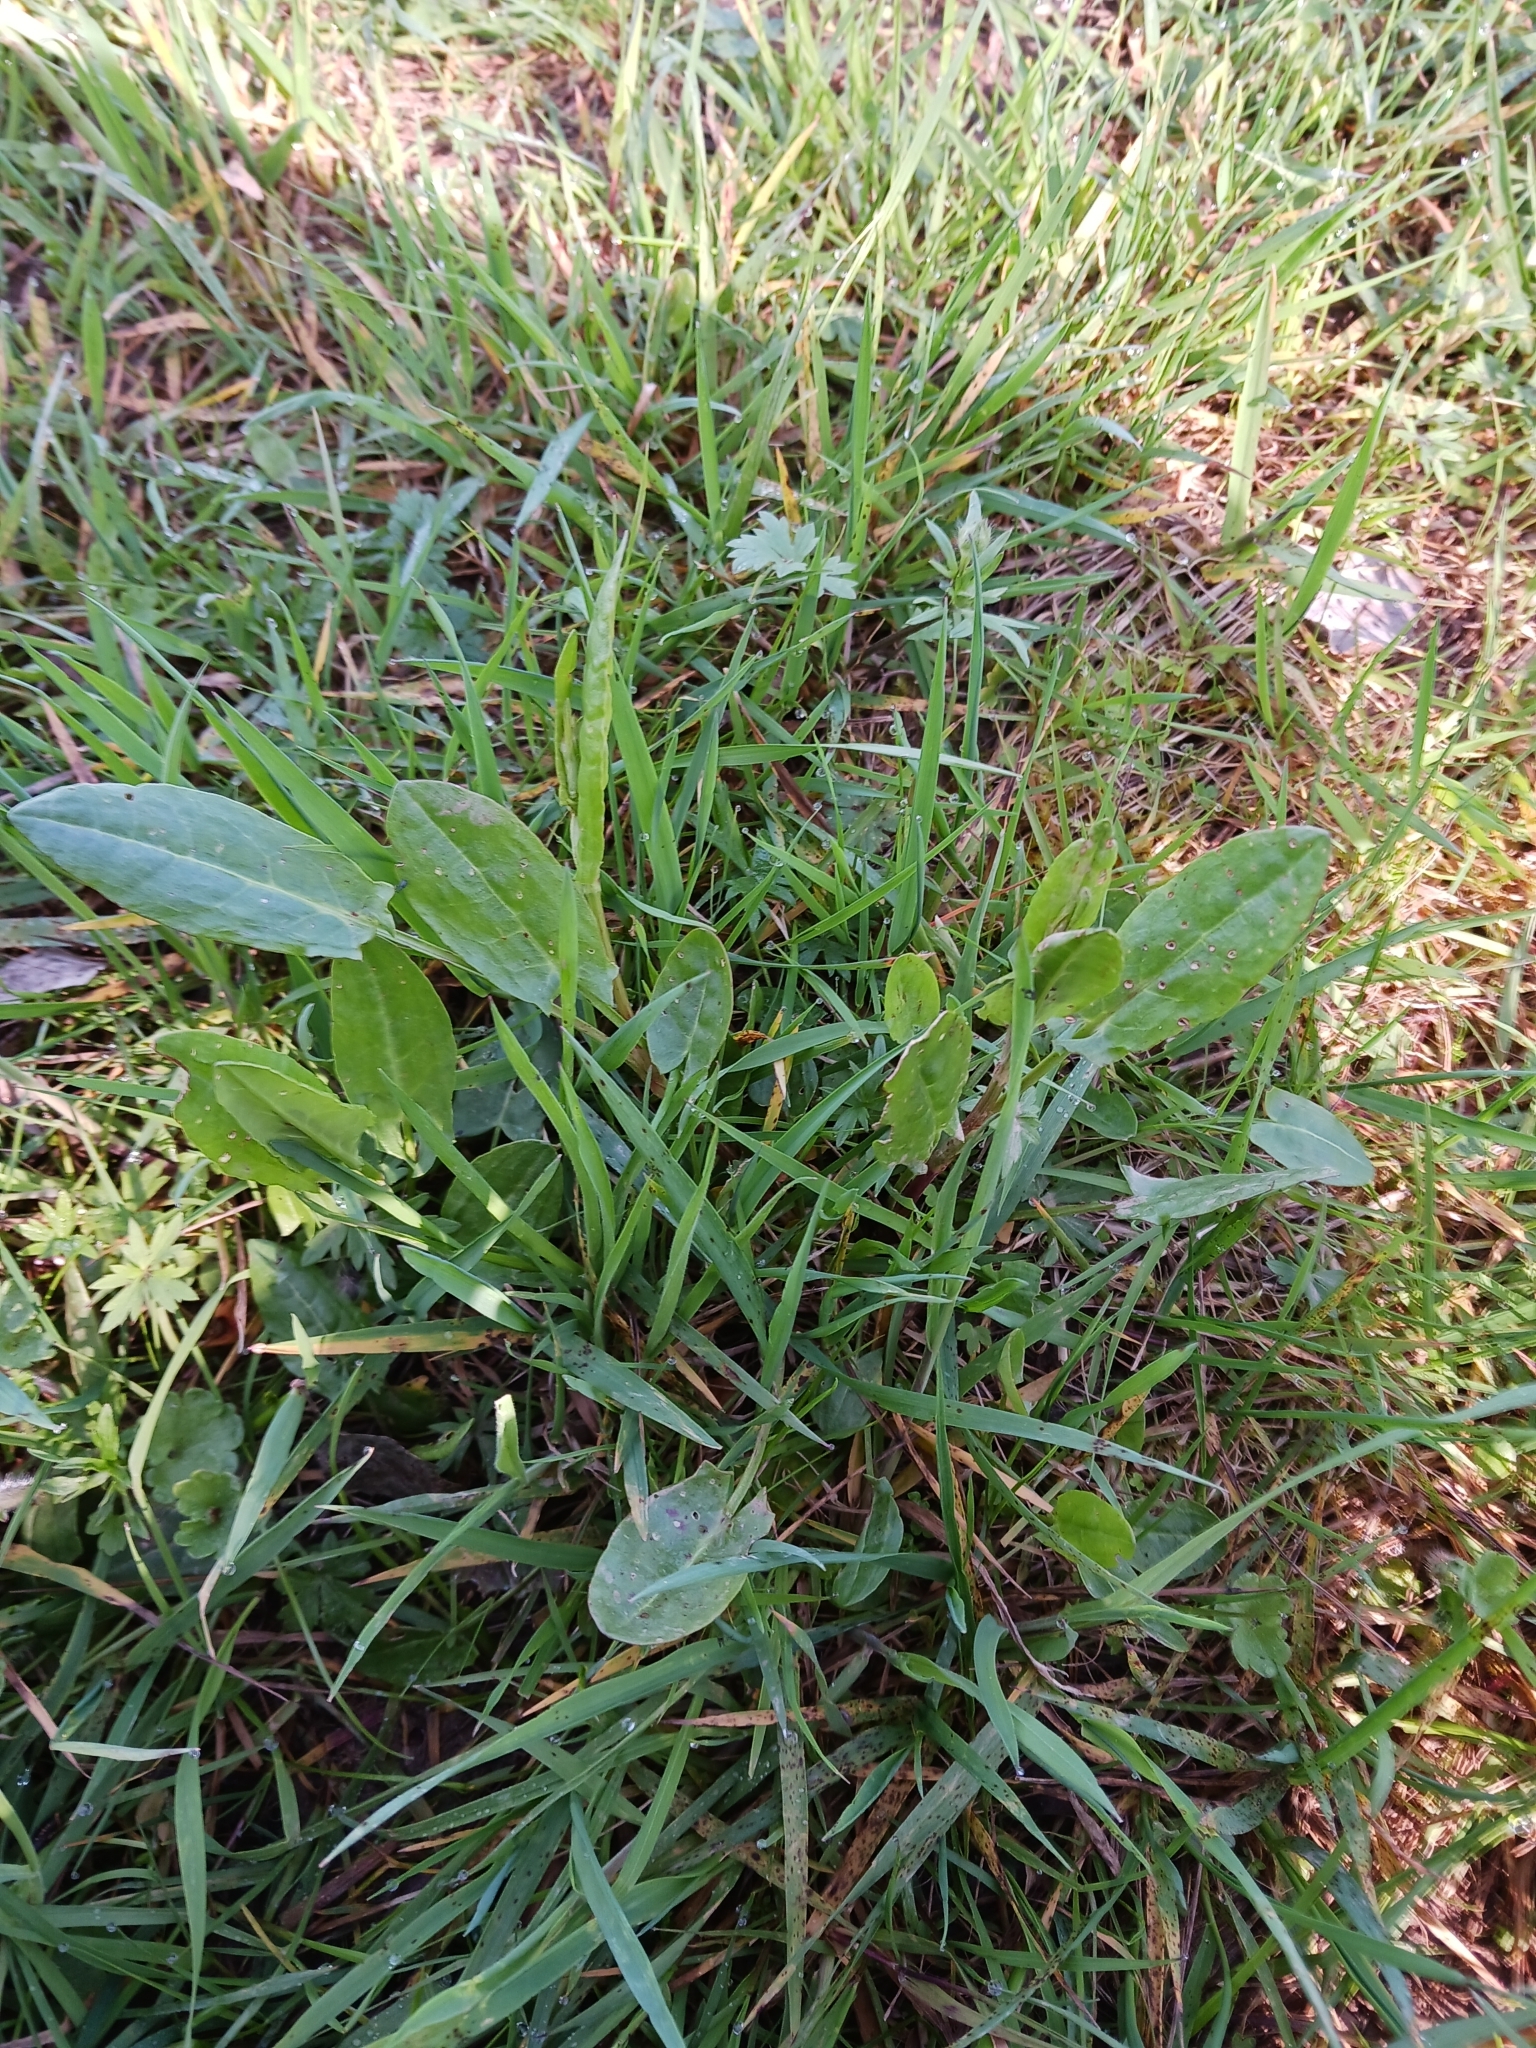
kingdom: Plantae
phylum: Tracheophyta
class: Magnoliopsida
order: Caryophyllales
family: Polygonaceae
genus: Rumex
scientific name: Rumex acetosa
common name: Garden sorrel
